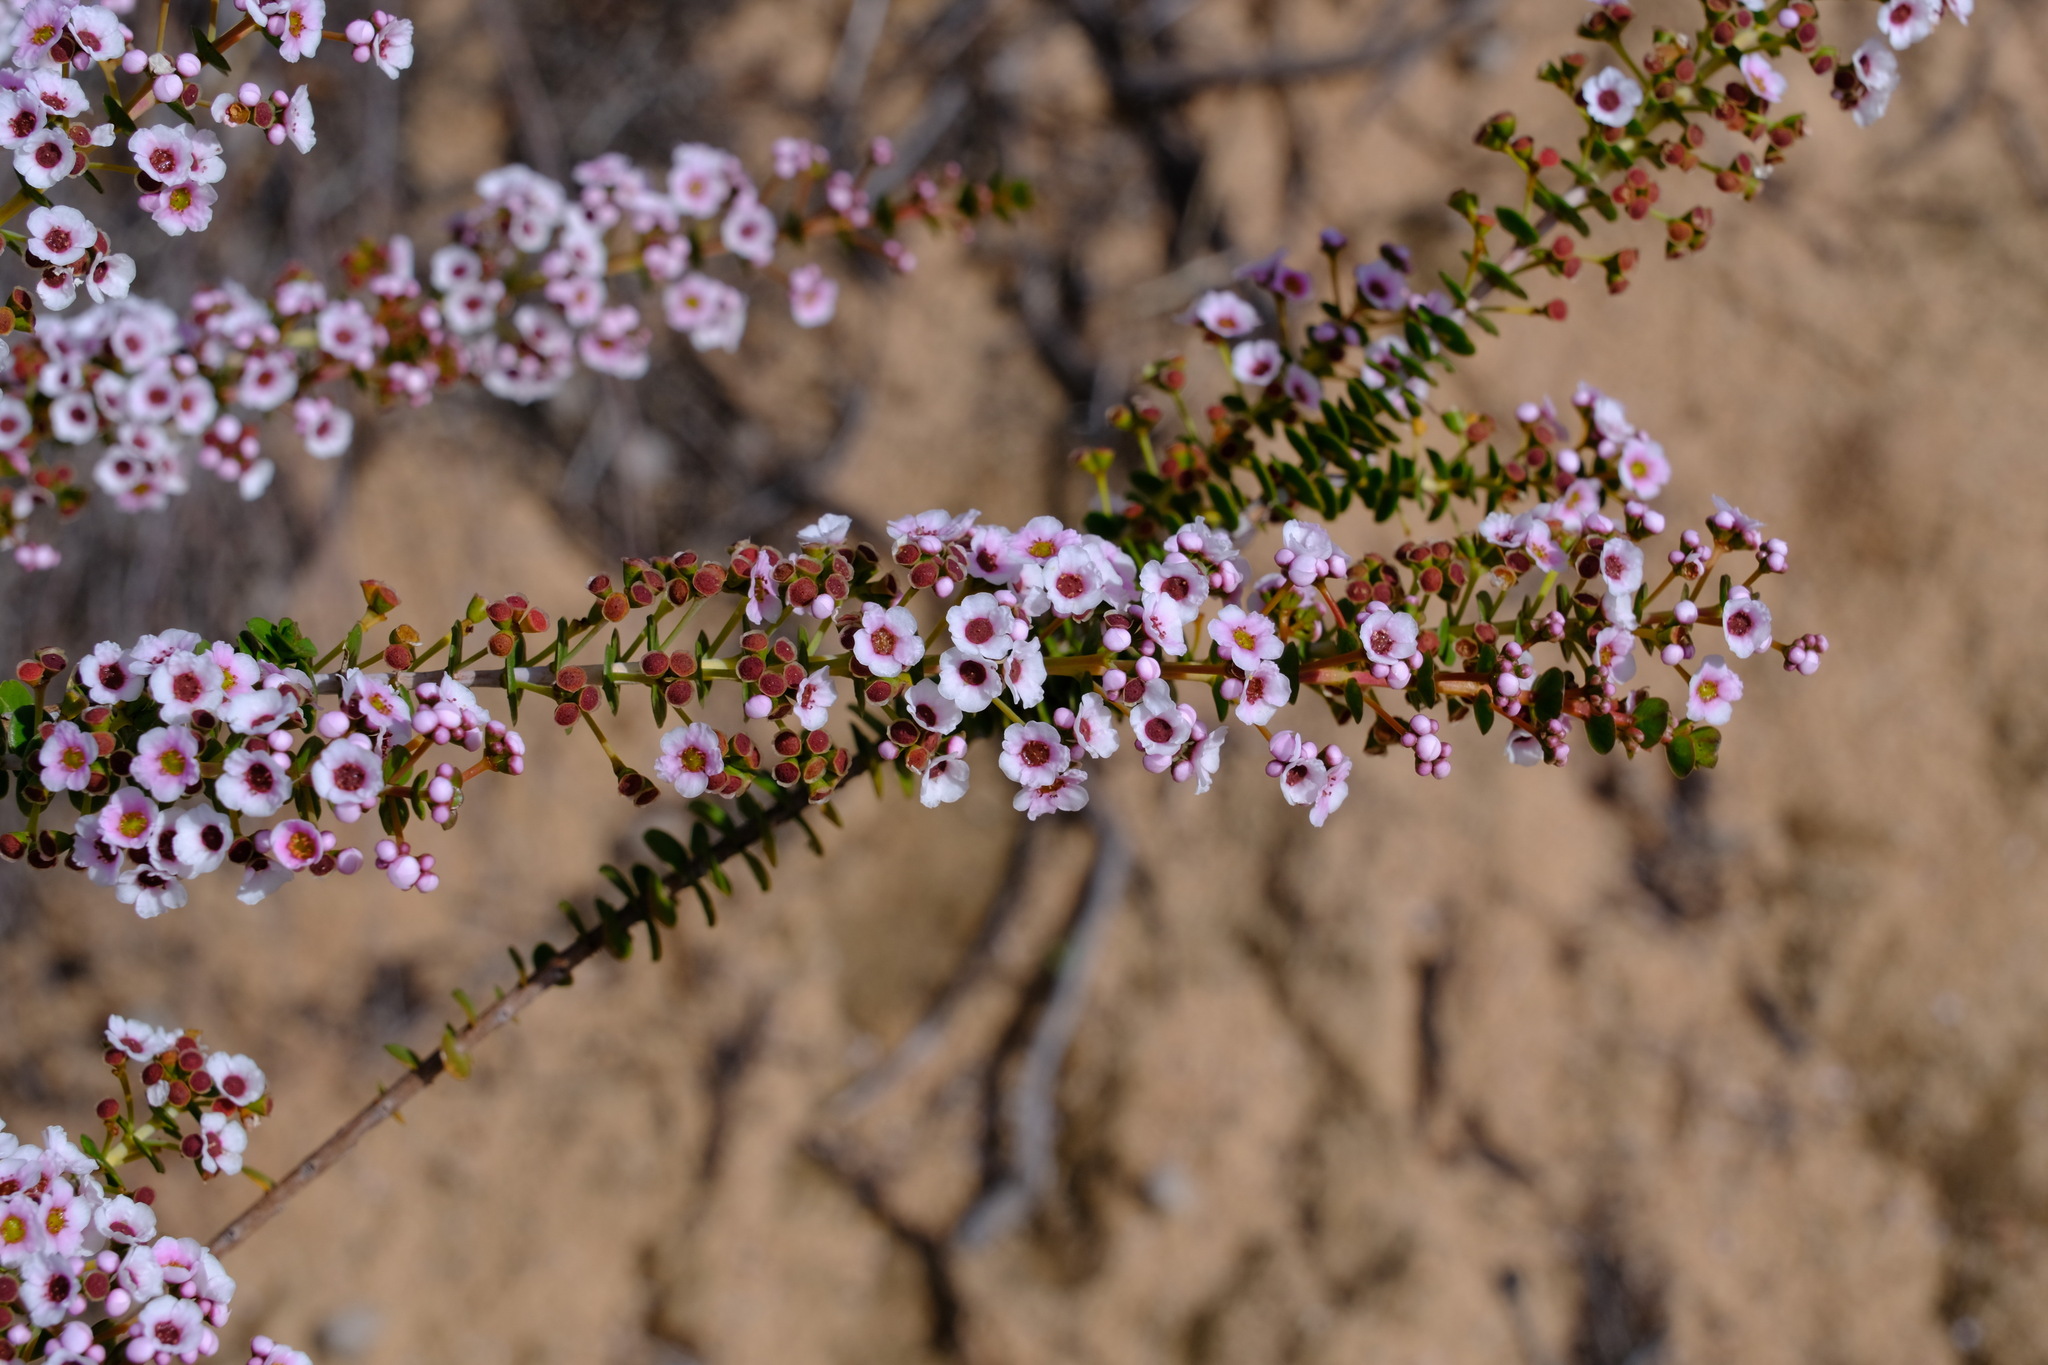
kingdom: Plantae
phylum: Tracheophyta
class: Magnoliopsida
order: Myrtales
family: Myrtaceae
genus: Scholtzia
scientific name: Scholtzia uberiflora
